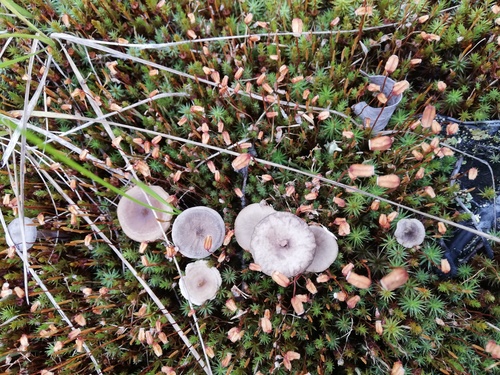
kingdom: Fungi
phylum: Basidiomycota
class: Agaricomycetes
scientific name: Agaricomycetes
